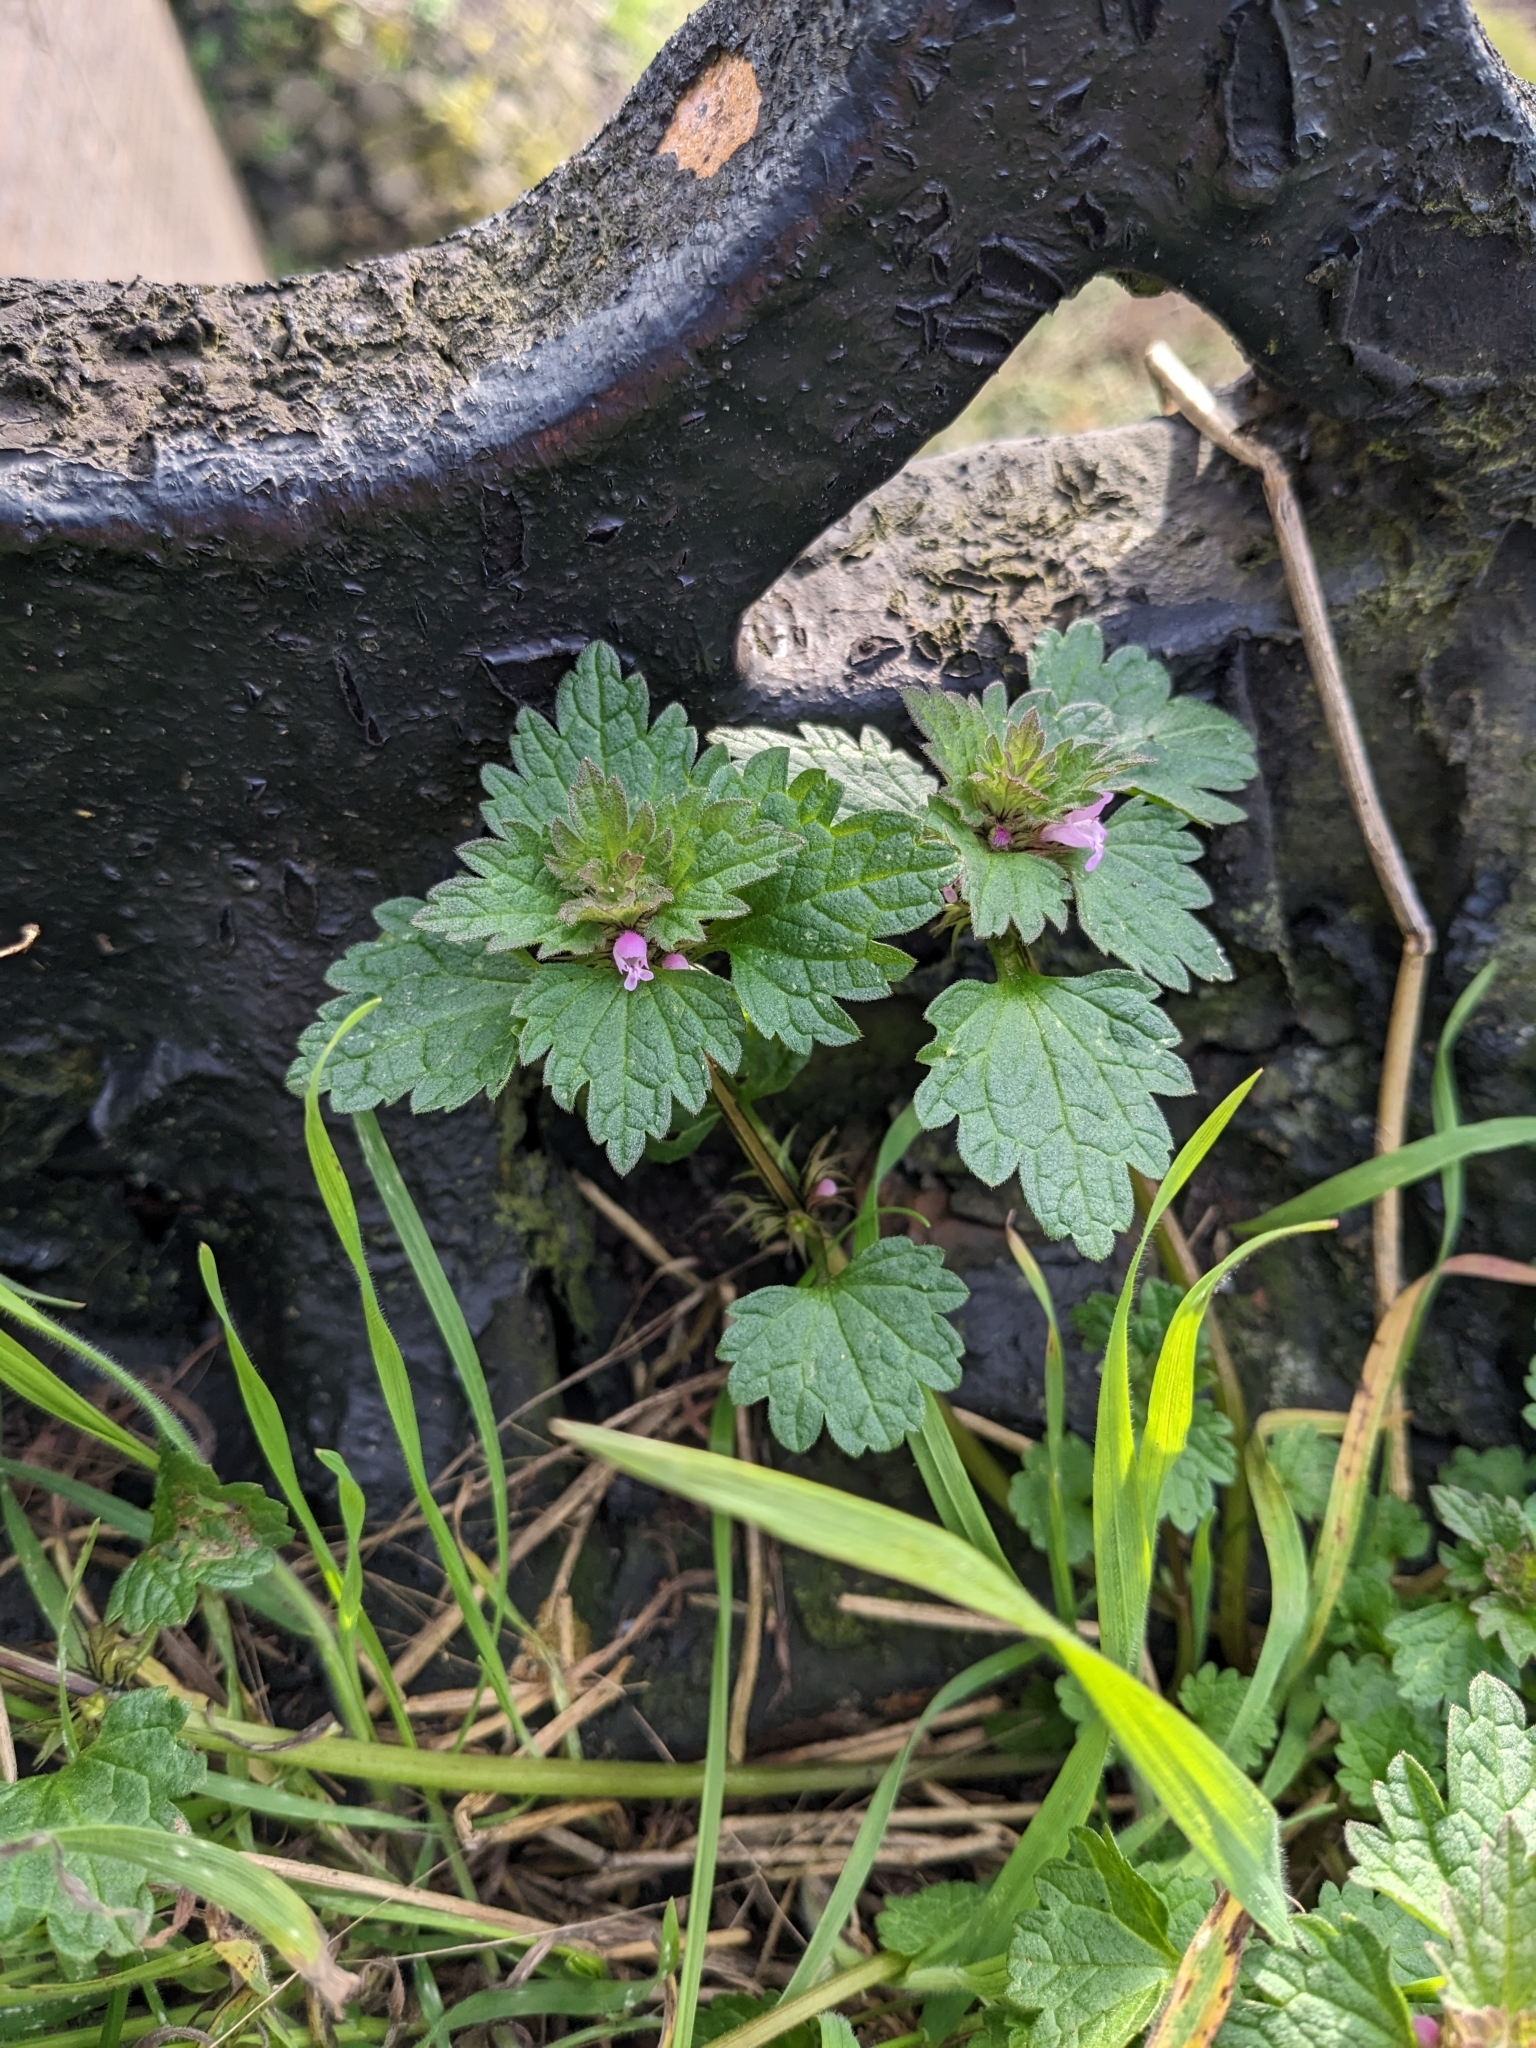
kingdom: Plantae
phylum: Tracheophyta
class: Magnoliopsida
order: Lamiales
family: Lamiaceae
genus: Lamium
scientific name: Lamium hybridum
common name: Cut-leaved dead-nettle
